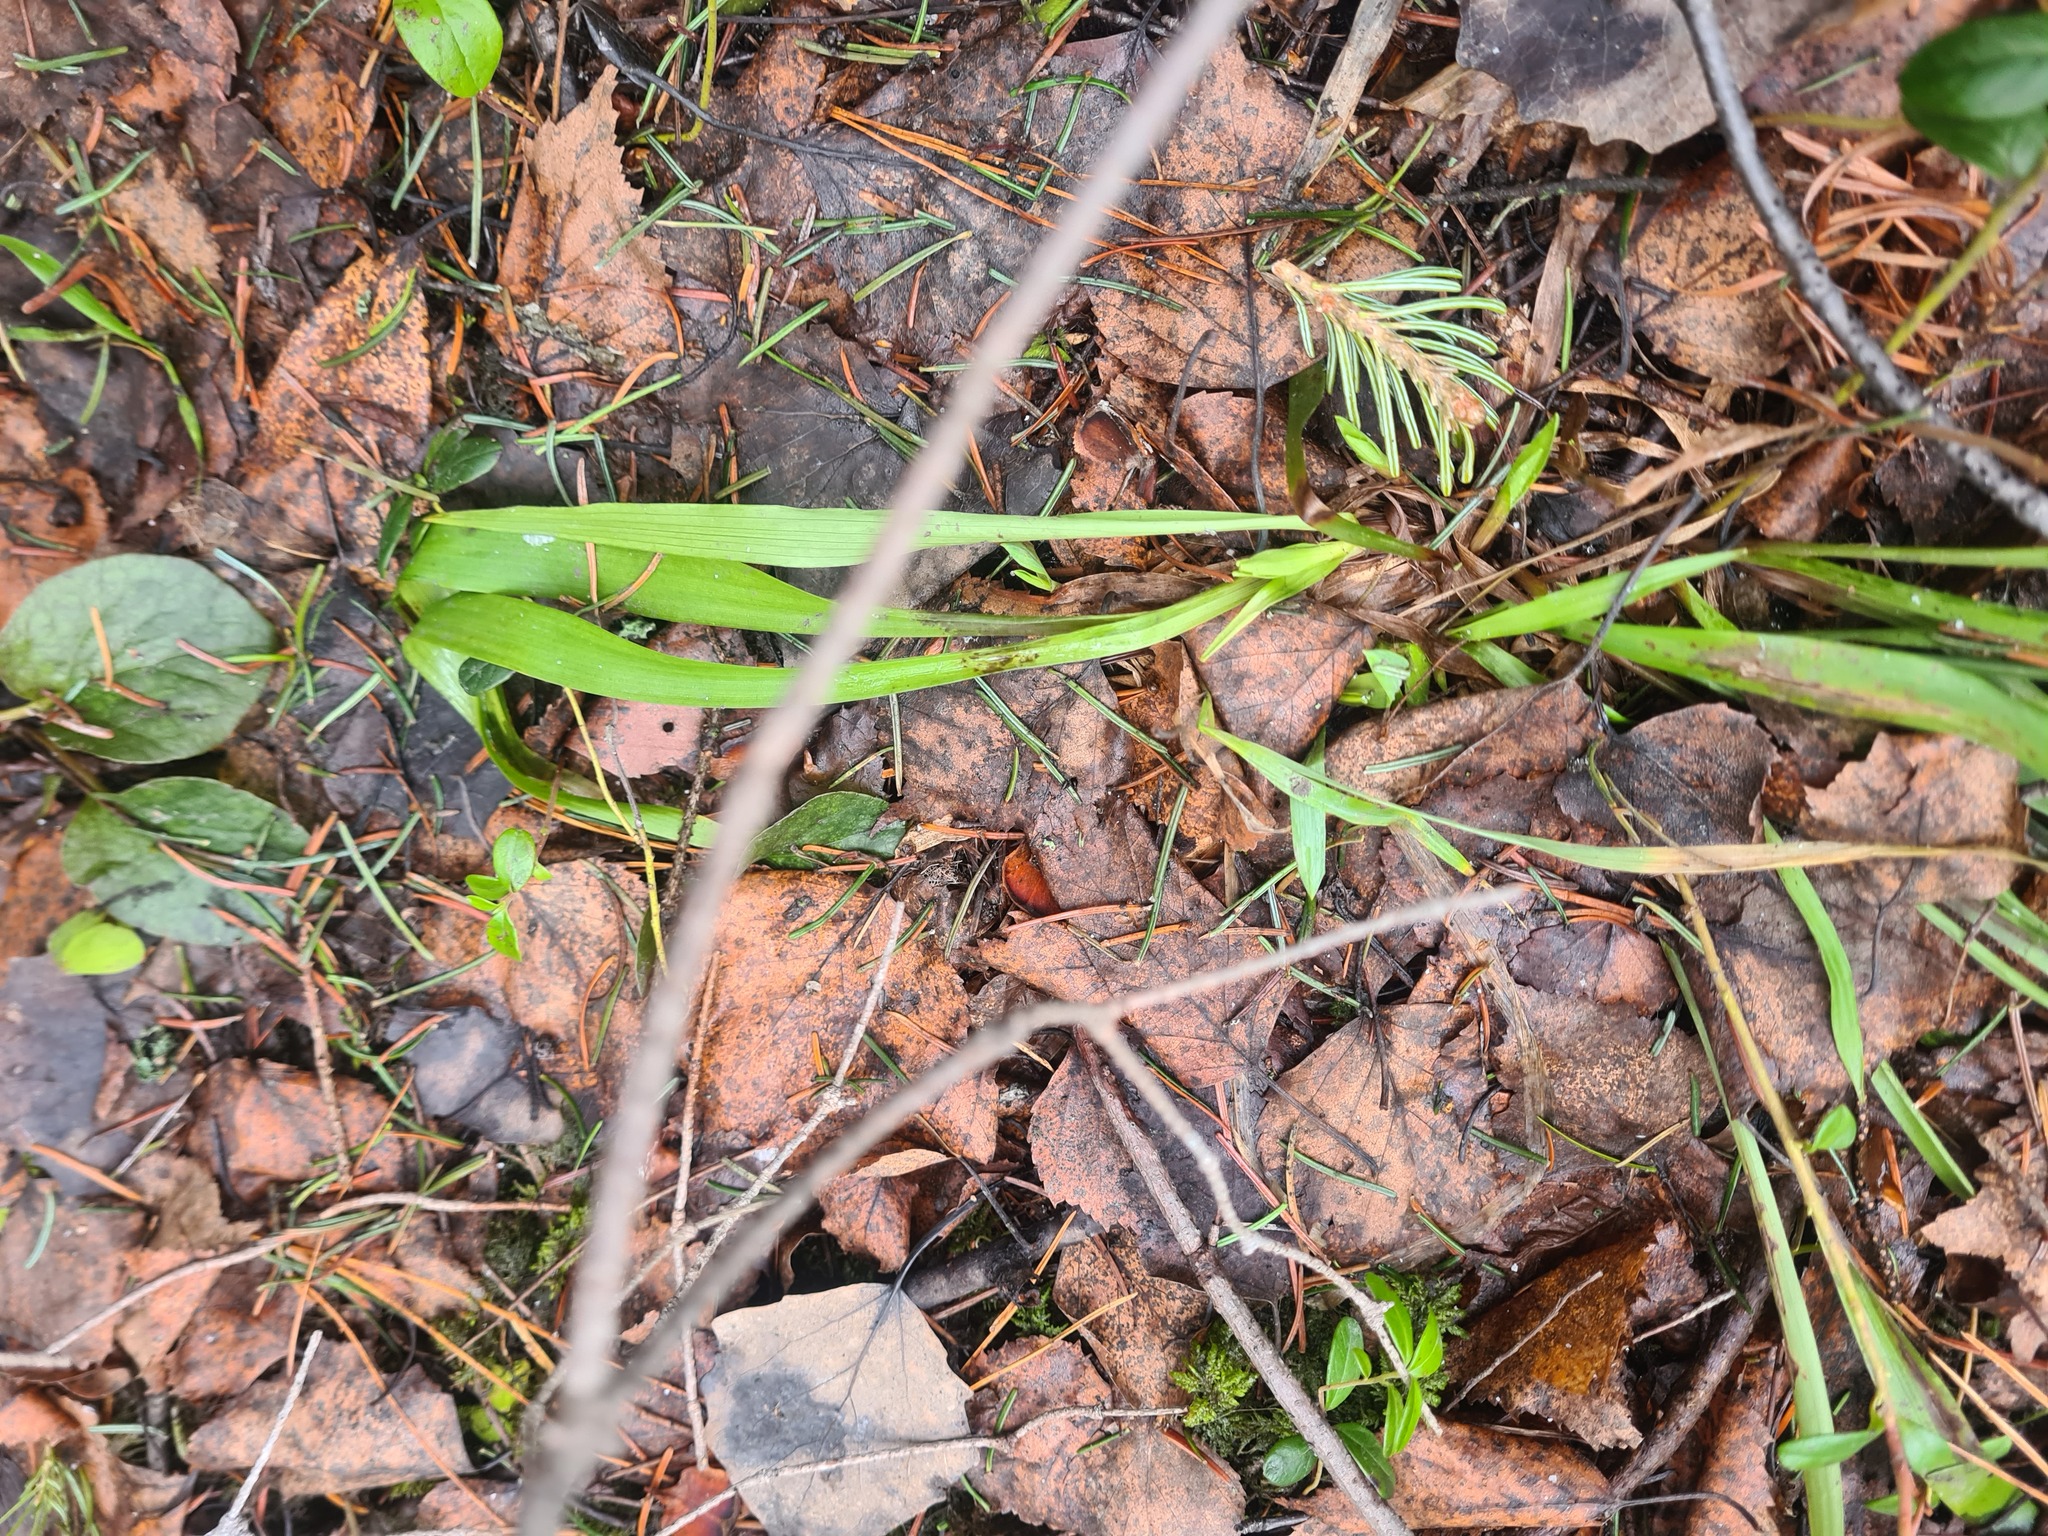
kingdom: Plantae
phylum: Tracheophyta
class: Liliopsida
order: Poales
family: Juncaceae
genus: Luzula
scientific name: Luzula pilosa
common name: Hairy wood-rush
